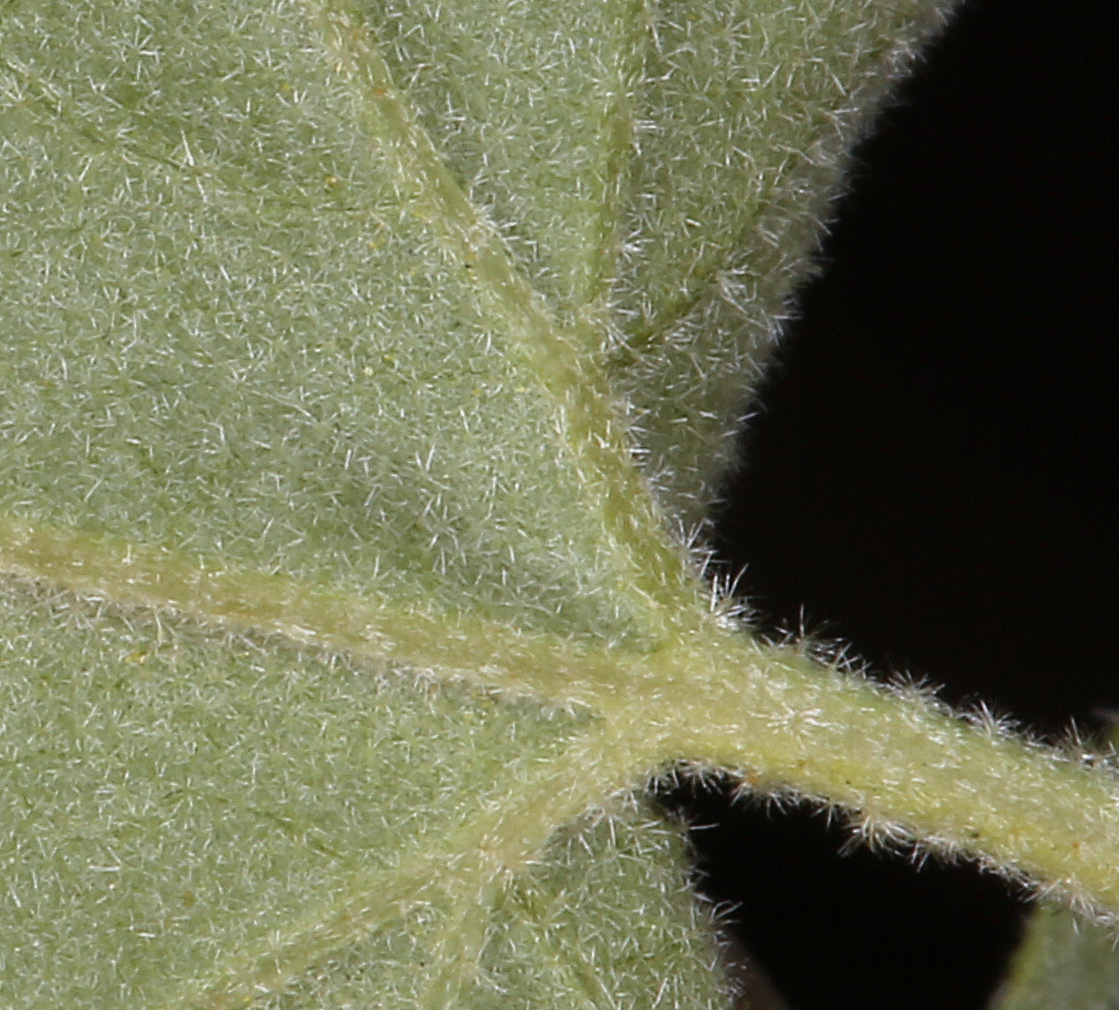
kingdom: Plantae
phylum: Tracheophyta
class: Magnoliopsida
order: Rosales
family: Rosaceae
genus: Physocarpus
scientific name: Physocarpus alternans
